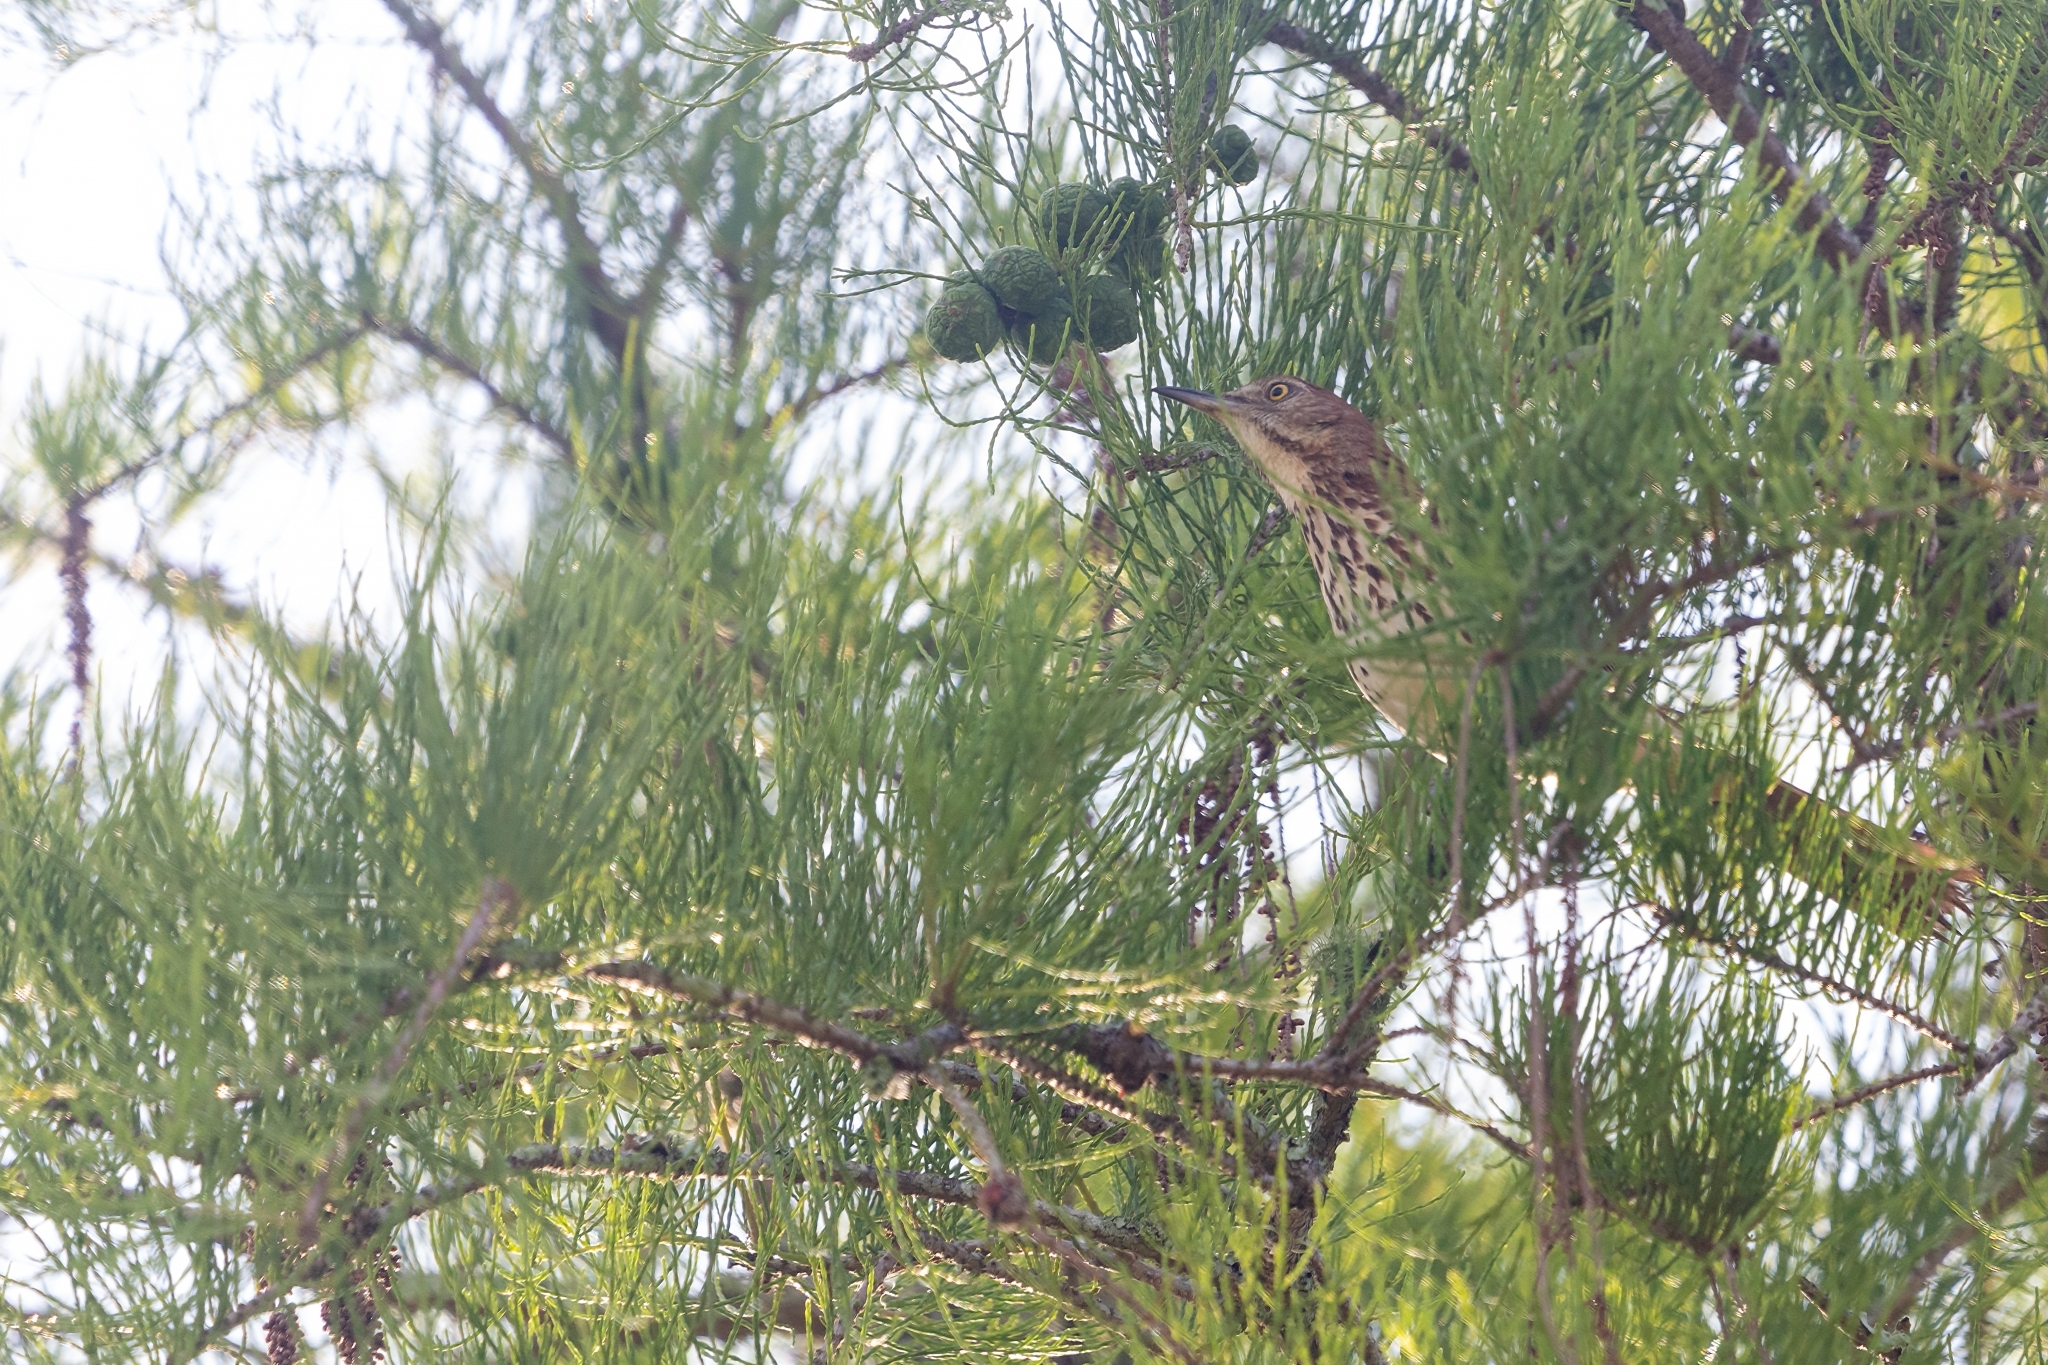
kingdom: Animalia
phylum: Chordata
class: Aves
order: Passeriformes
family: Mimidae
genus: Toxostoma
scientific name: Toxostoma rufum
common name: Brown thrasher
